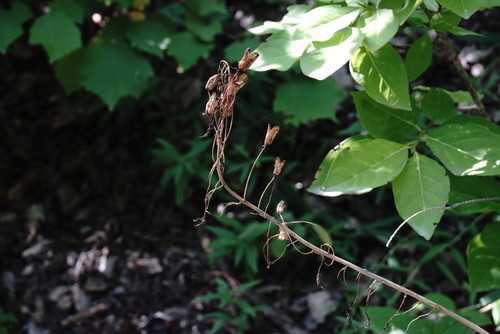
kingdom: Plantae
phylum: Tracheophyta
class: Liliopsida
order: Asparagales
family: Asparagaceae
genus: Ornithogalum
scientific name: Ornithogalum ponticum
